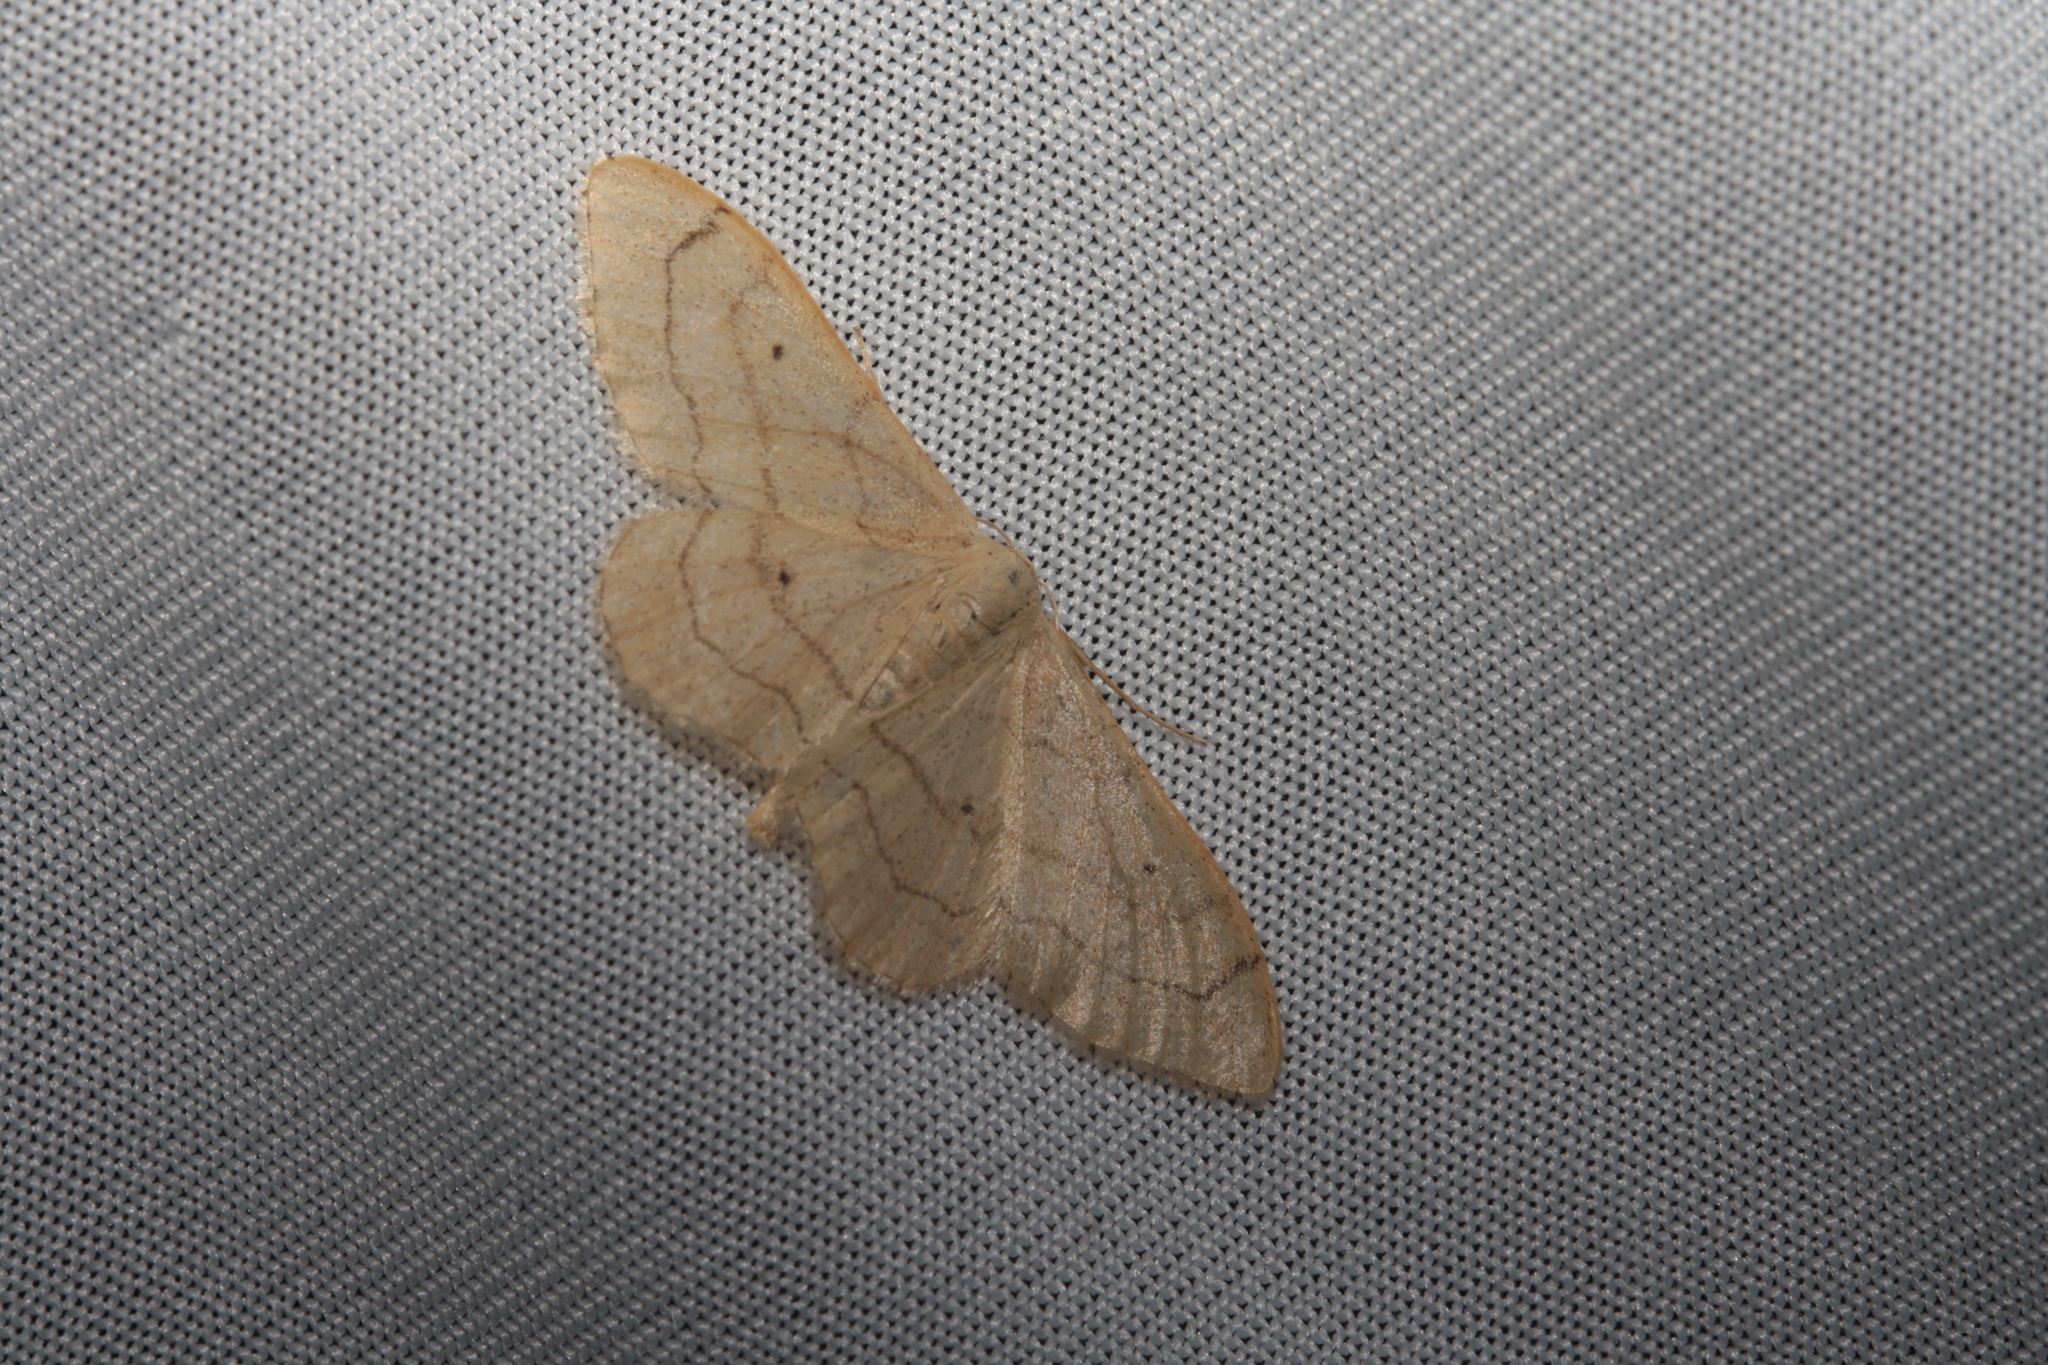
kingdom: Animalia
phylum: Arthropoda
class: Insecta
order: Lepidoptera
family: Geometridae
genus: Idaea
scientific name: Idaea aversata
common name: Riband wave
